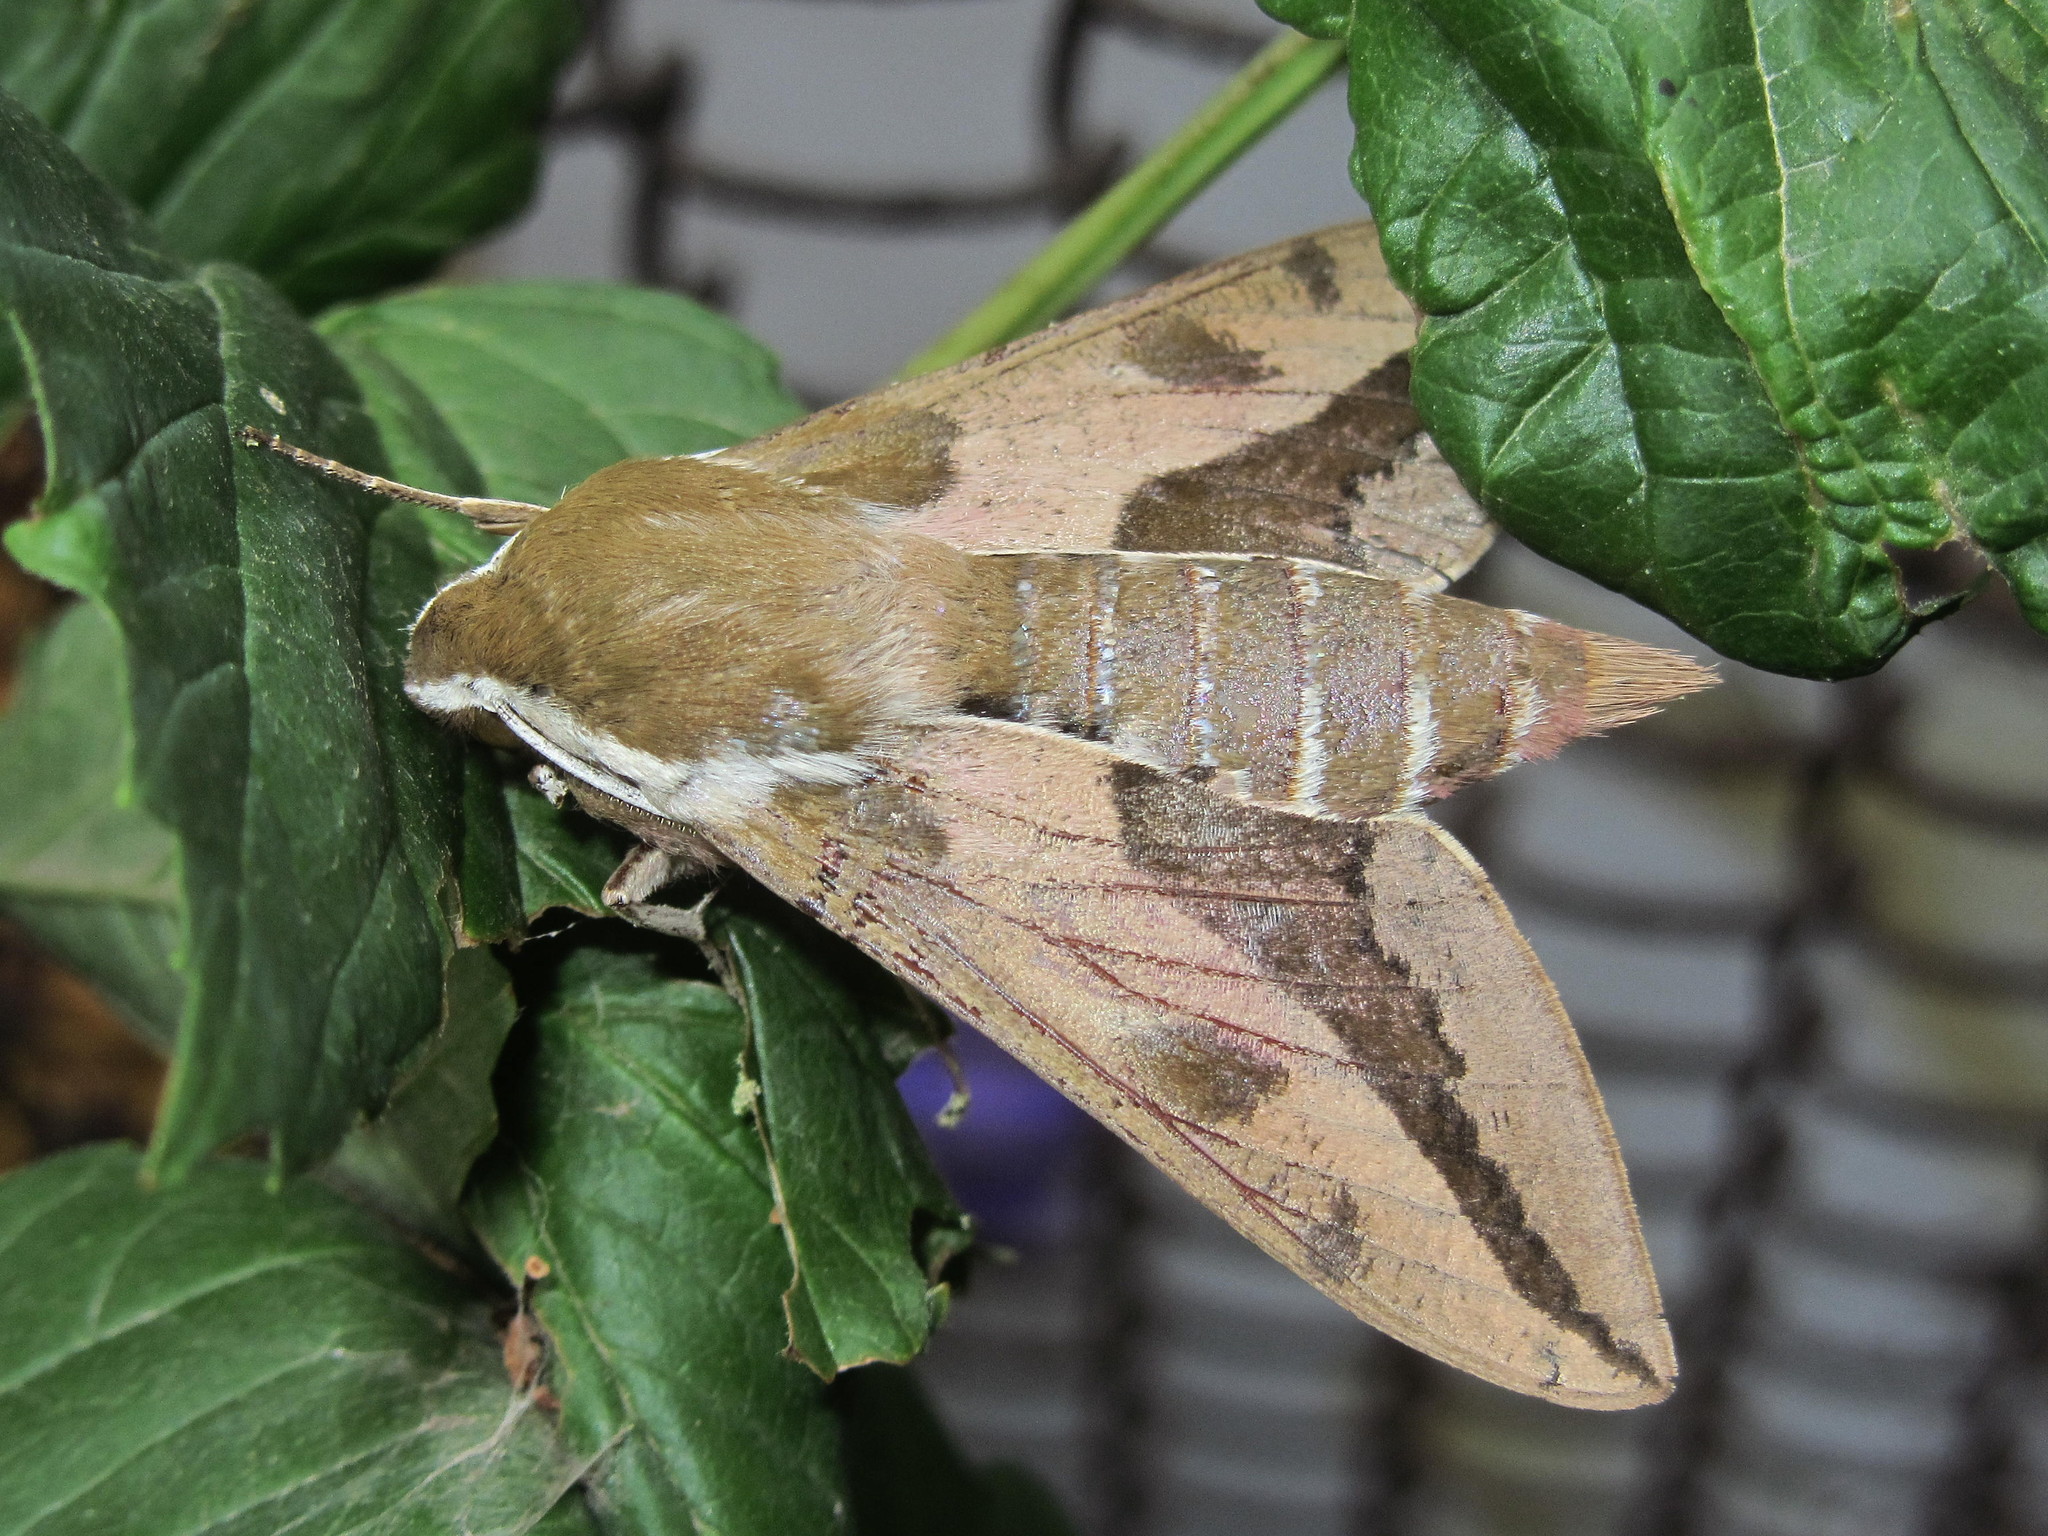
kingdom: Animalia
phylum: Arthropoda
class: Insecta
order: Lepidoptera
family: Sphingidae
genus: Hyles
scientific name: Hyles euphorbiae
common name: Spurge hawk-moth
